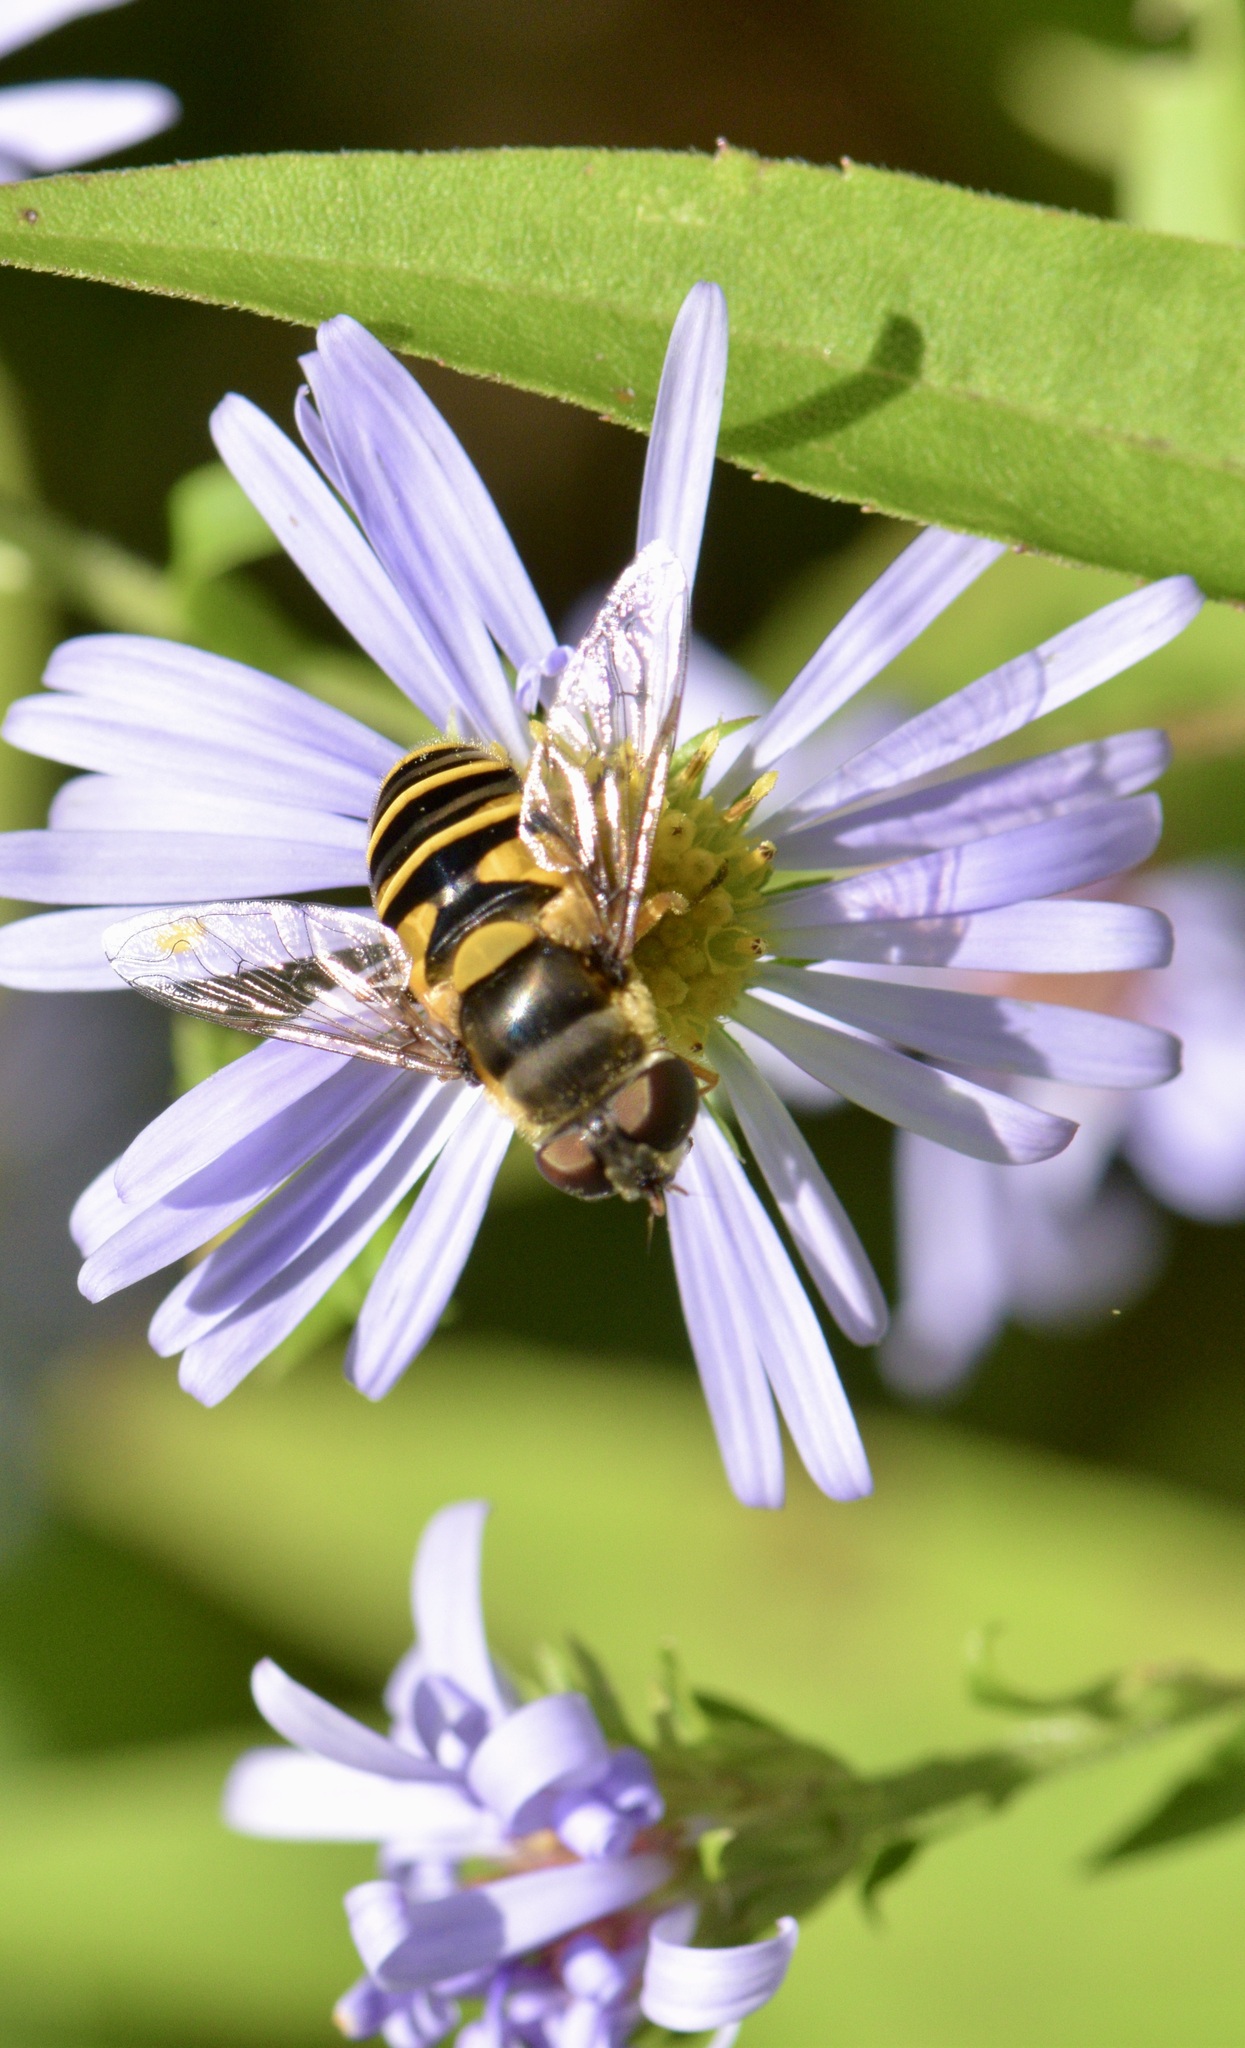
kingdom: Animalia
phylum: Arthropoda
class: Insecta
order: Diptera
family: Syrphidae
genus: Eristalis
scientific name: Eristalis transversa
